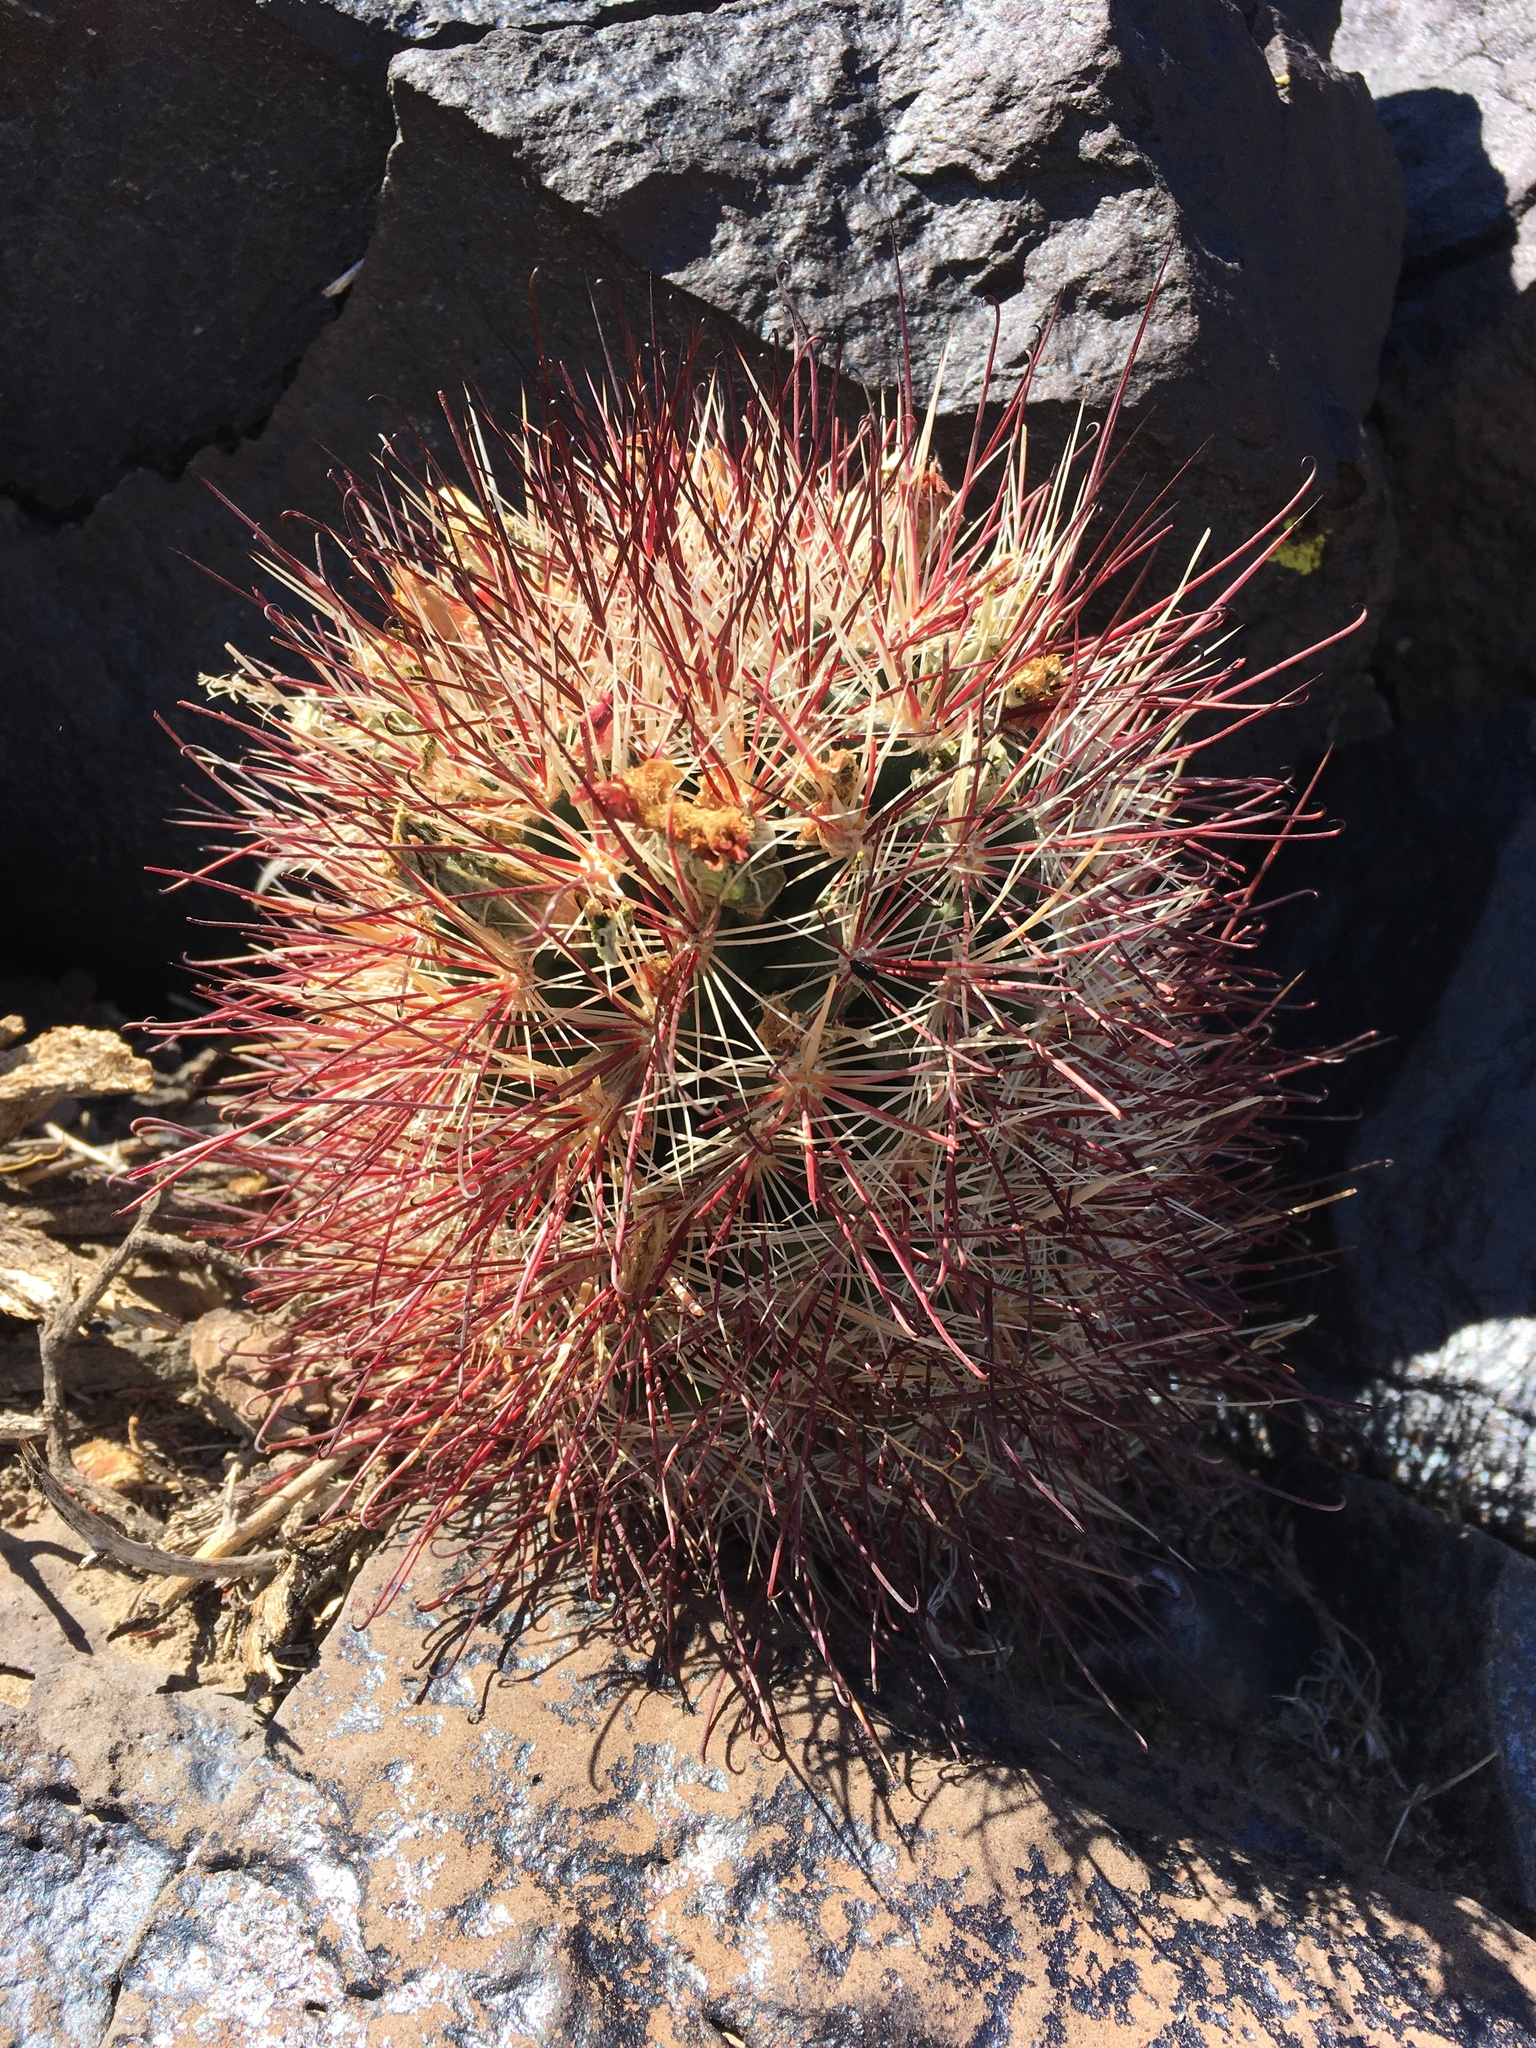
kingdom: Plantae
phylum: Tracheophyta
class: Magnoliopsida
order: Caryophyllales
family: Cactaceae
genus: Sclerocactus
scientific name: Sclerocactus polyancistrus
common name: Mohave fishhook cactus
